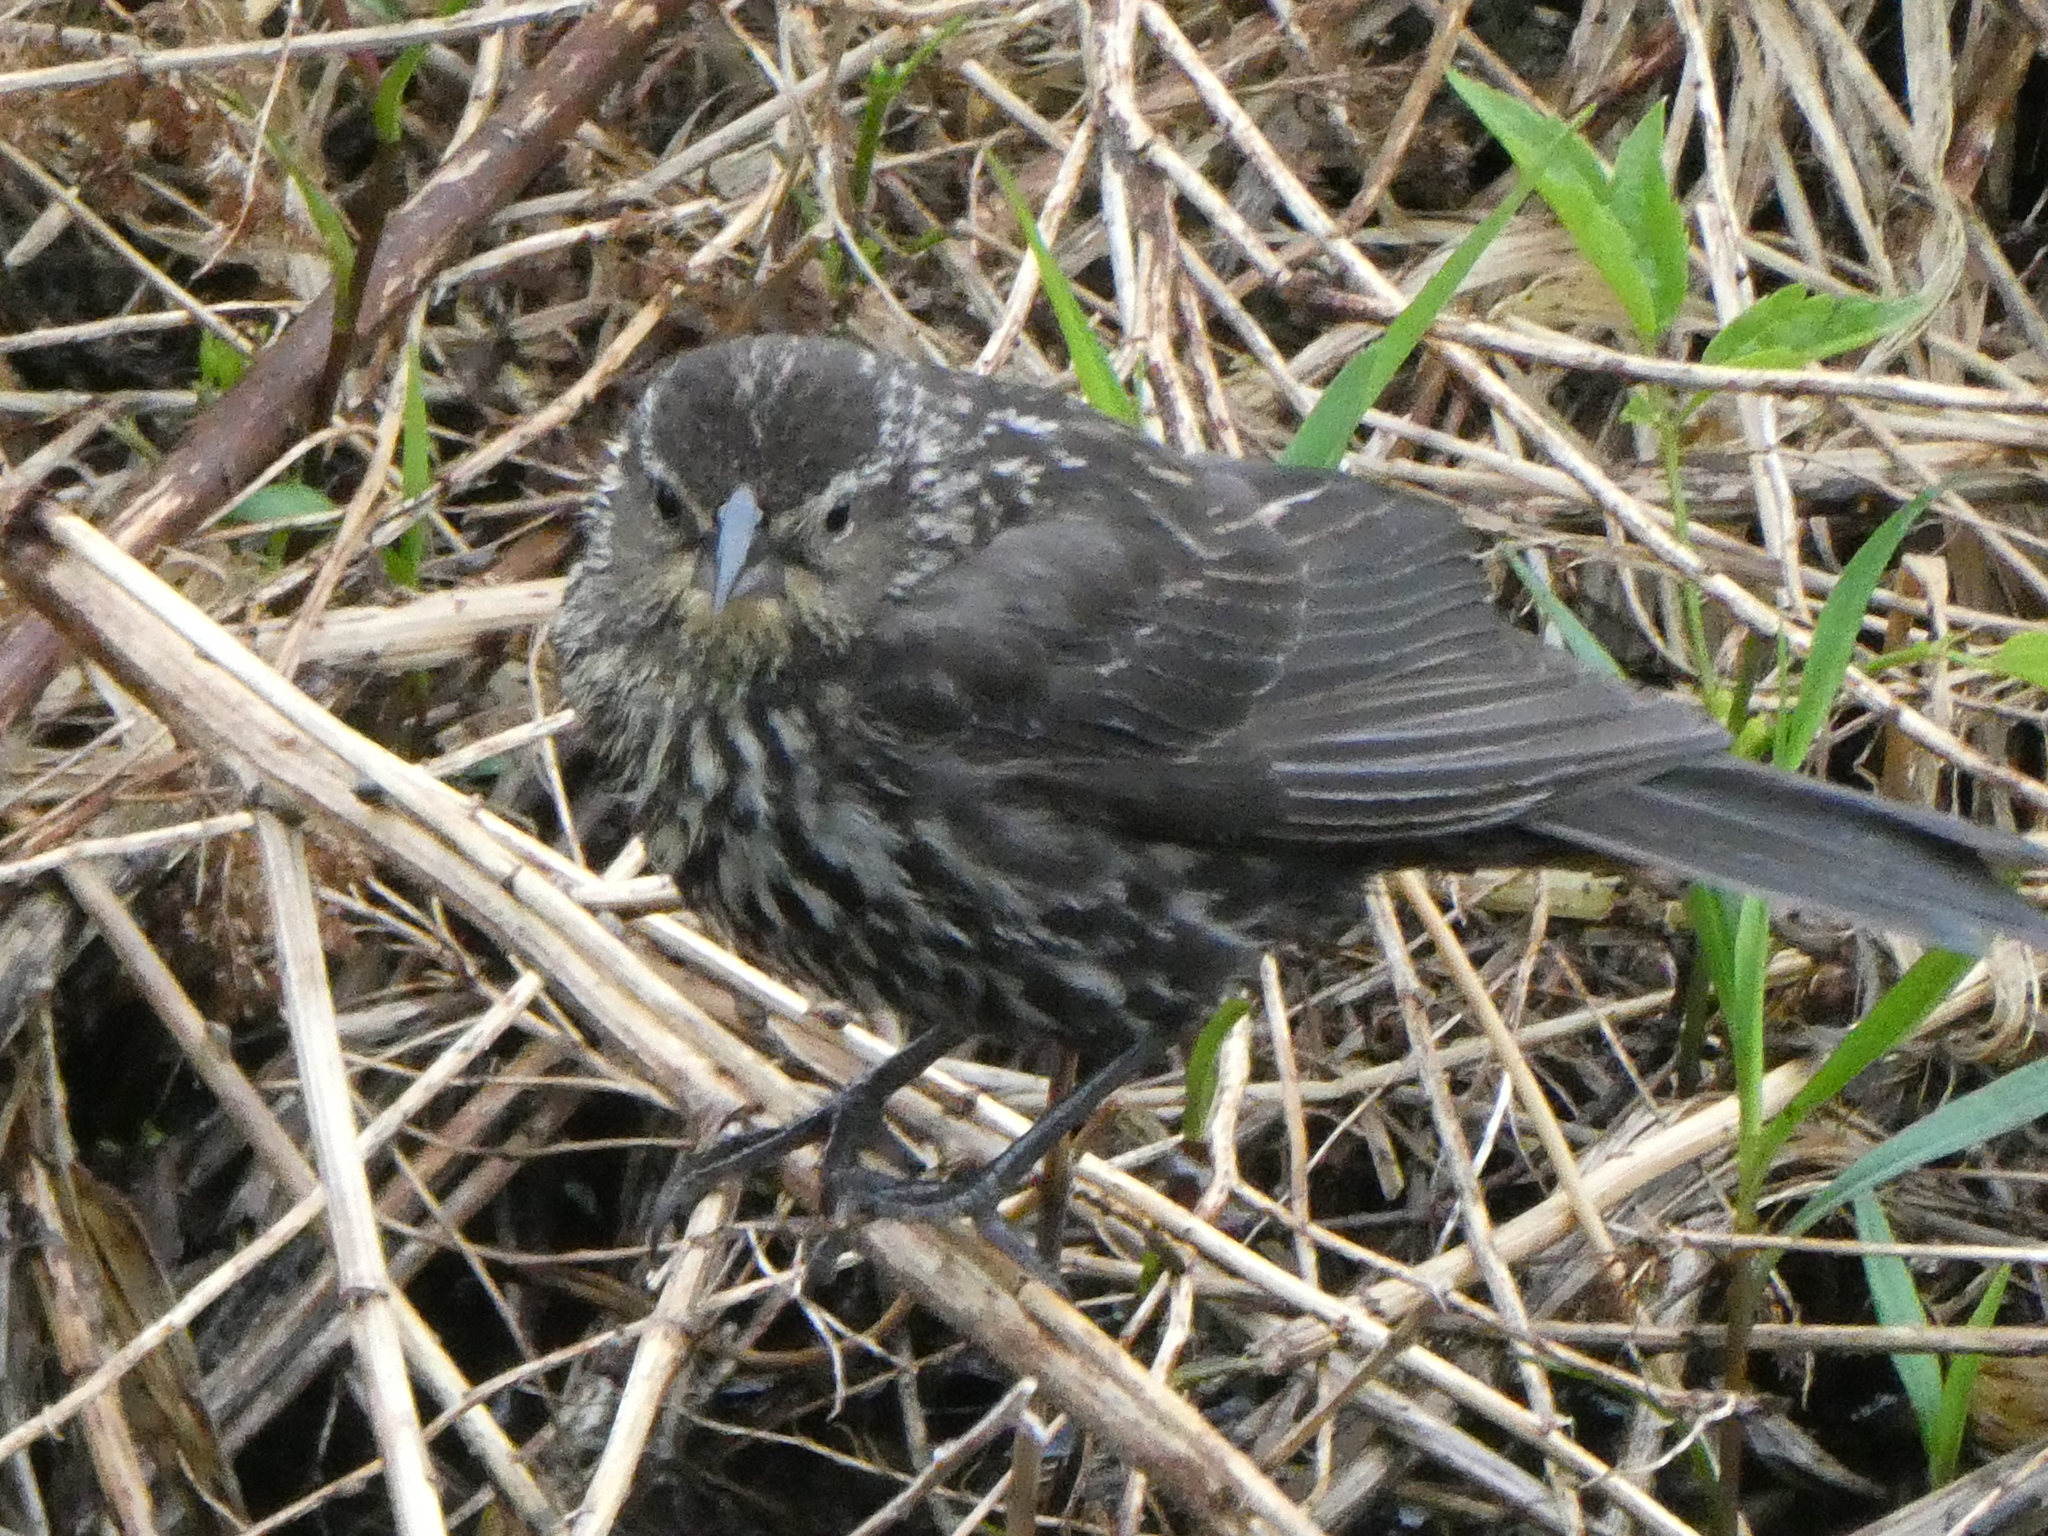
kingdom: Animalia
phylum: Chordata
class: Aves
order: Passeriformes
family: Icteridae
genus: Agelaius
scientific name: Agelaius phoeniceus
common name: Red-winged blackbird
